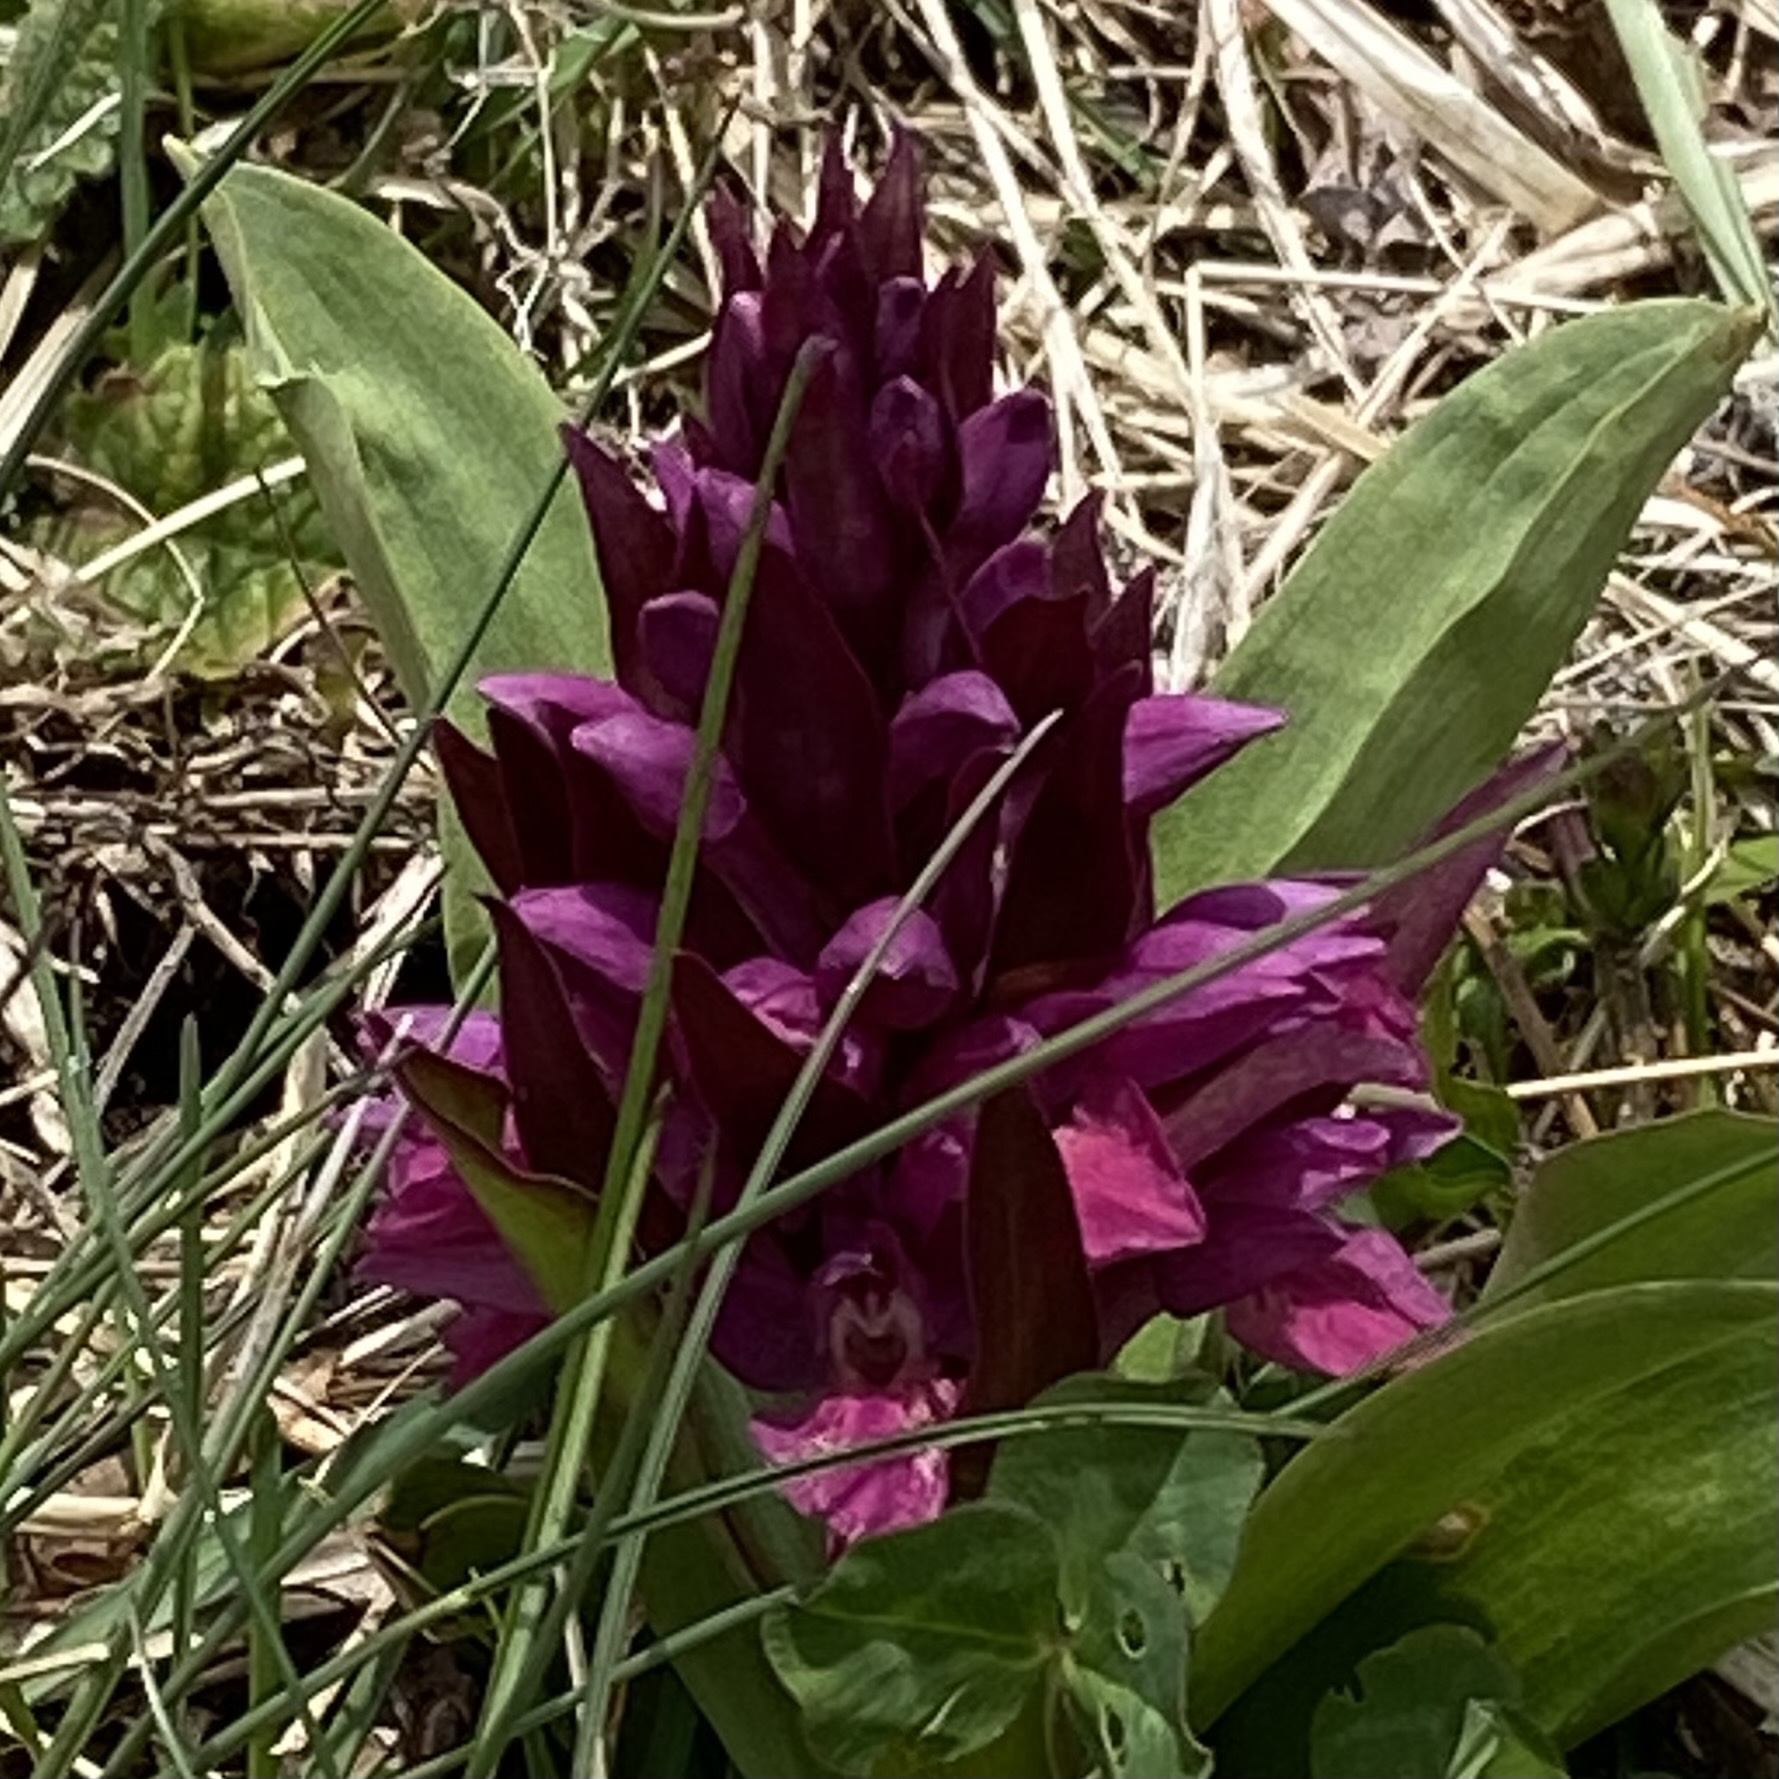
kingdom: Plantae
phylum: Tracheophyta
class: Liliopsida
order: Asparagales
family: Orchidaceae
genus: Dactylorhiza
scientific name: Dactylorhiza sambucina
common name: Elder-flowered orchid
